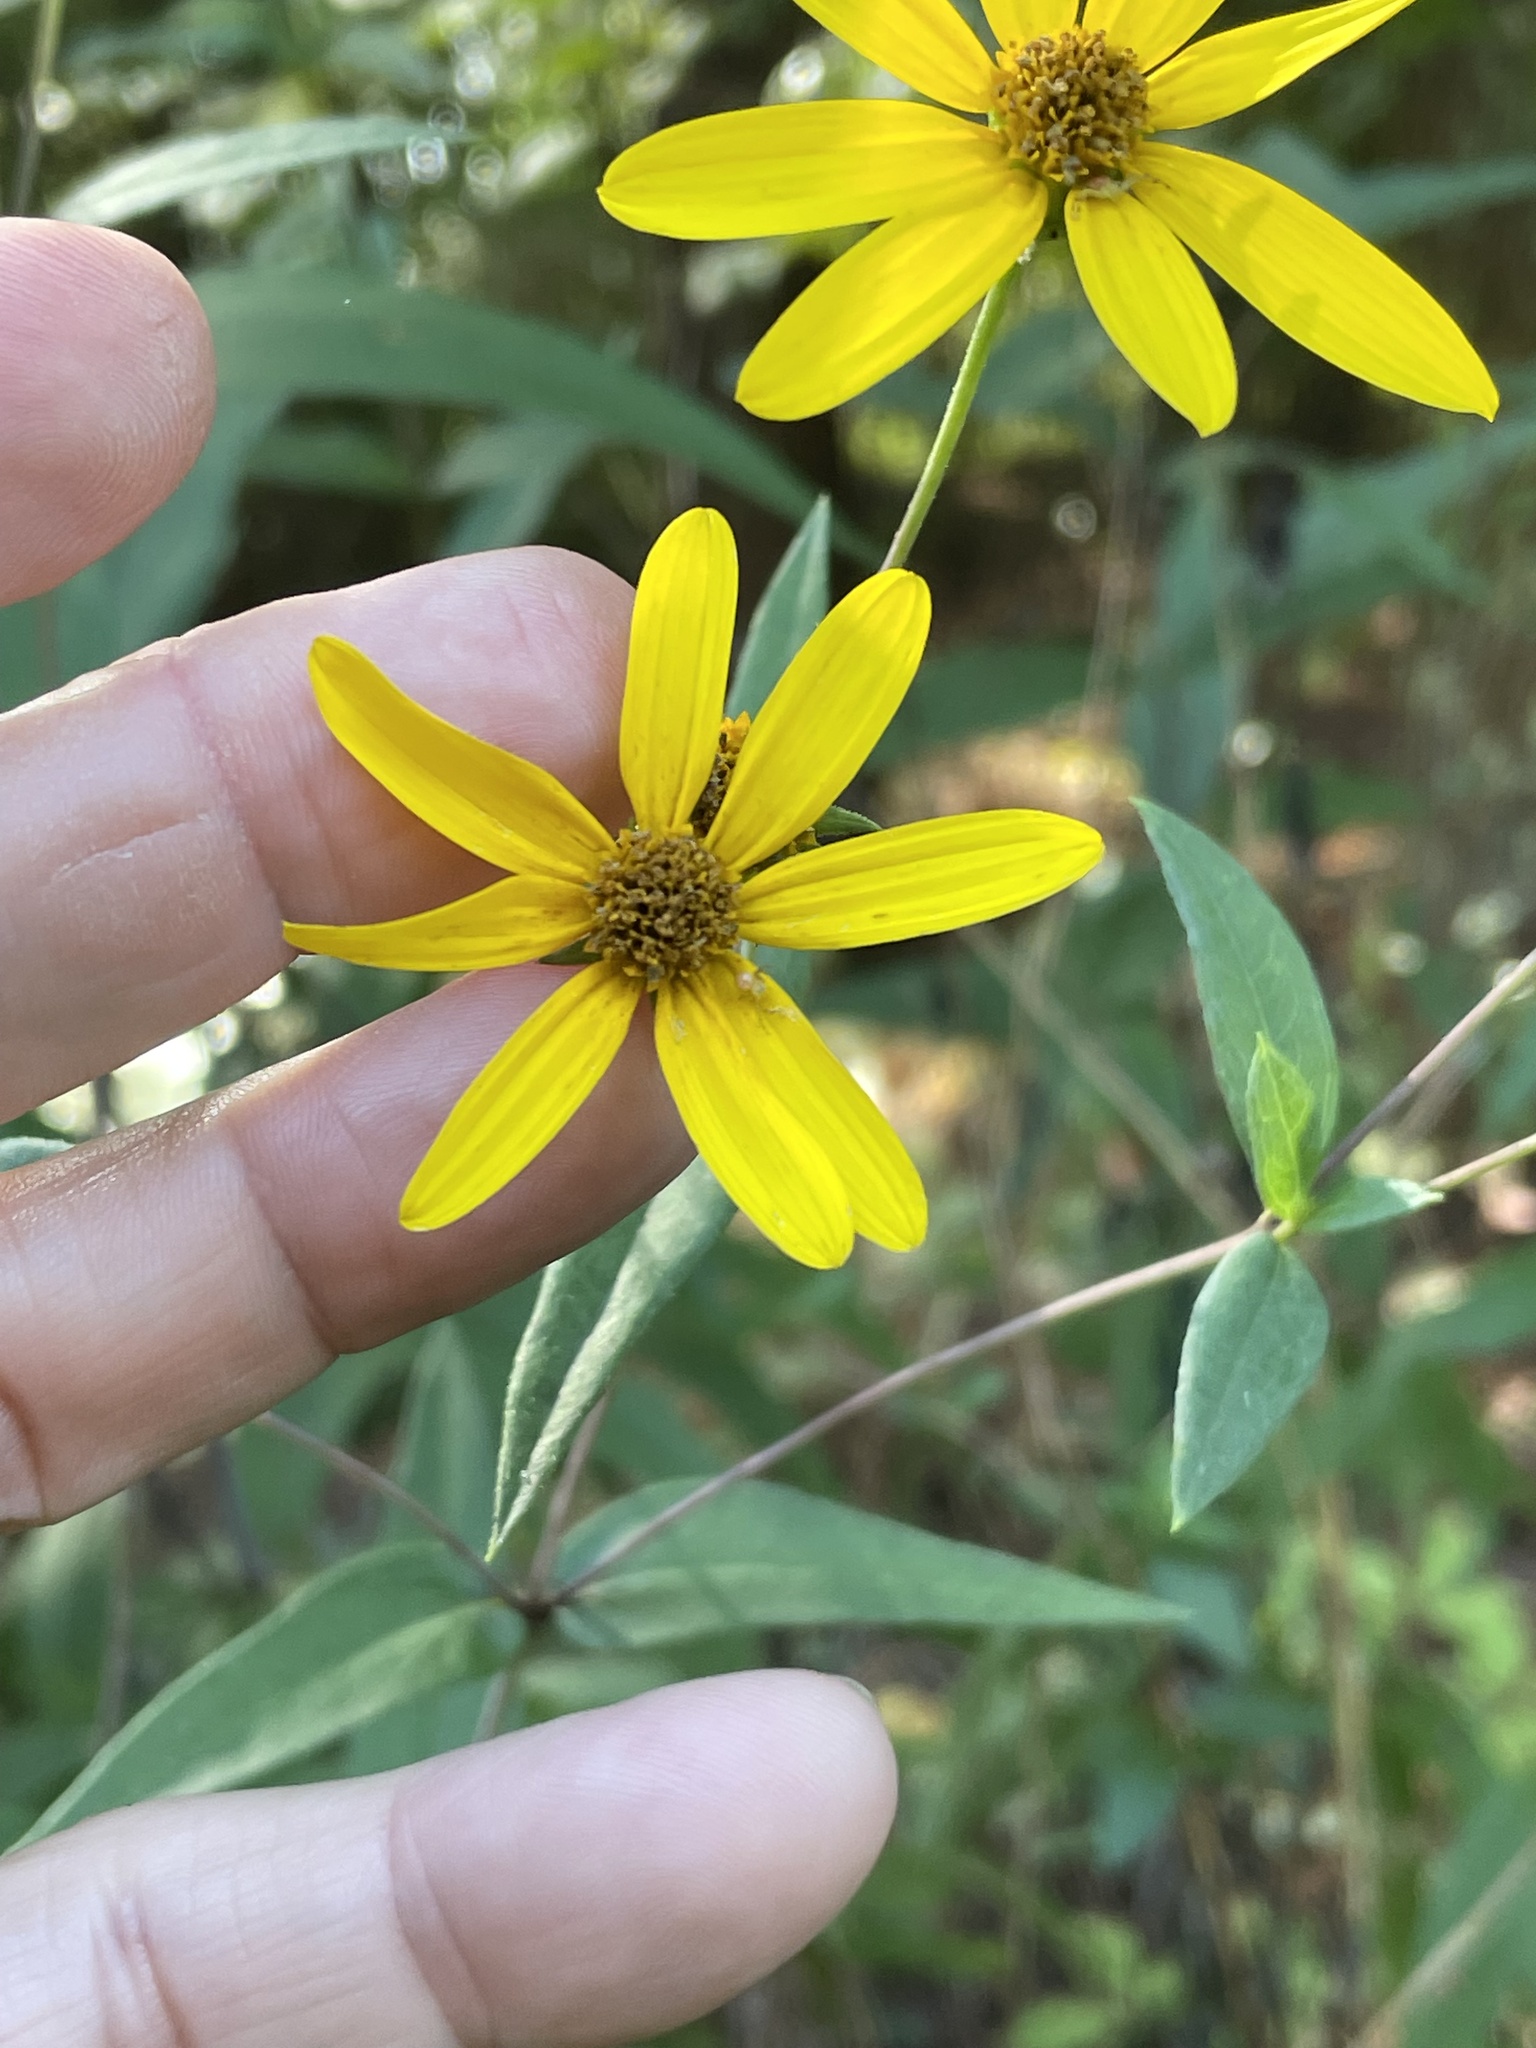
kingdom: Plantae
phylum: Tracheophyta
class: Magnoliopsida
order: Asterales
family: Asteraceae
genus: Helianthus
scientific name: Helianthus laevigatus
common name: Smooth sunflower
